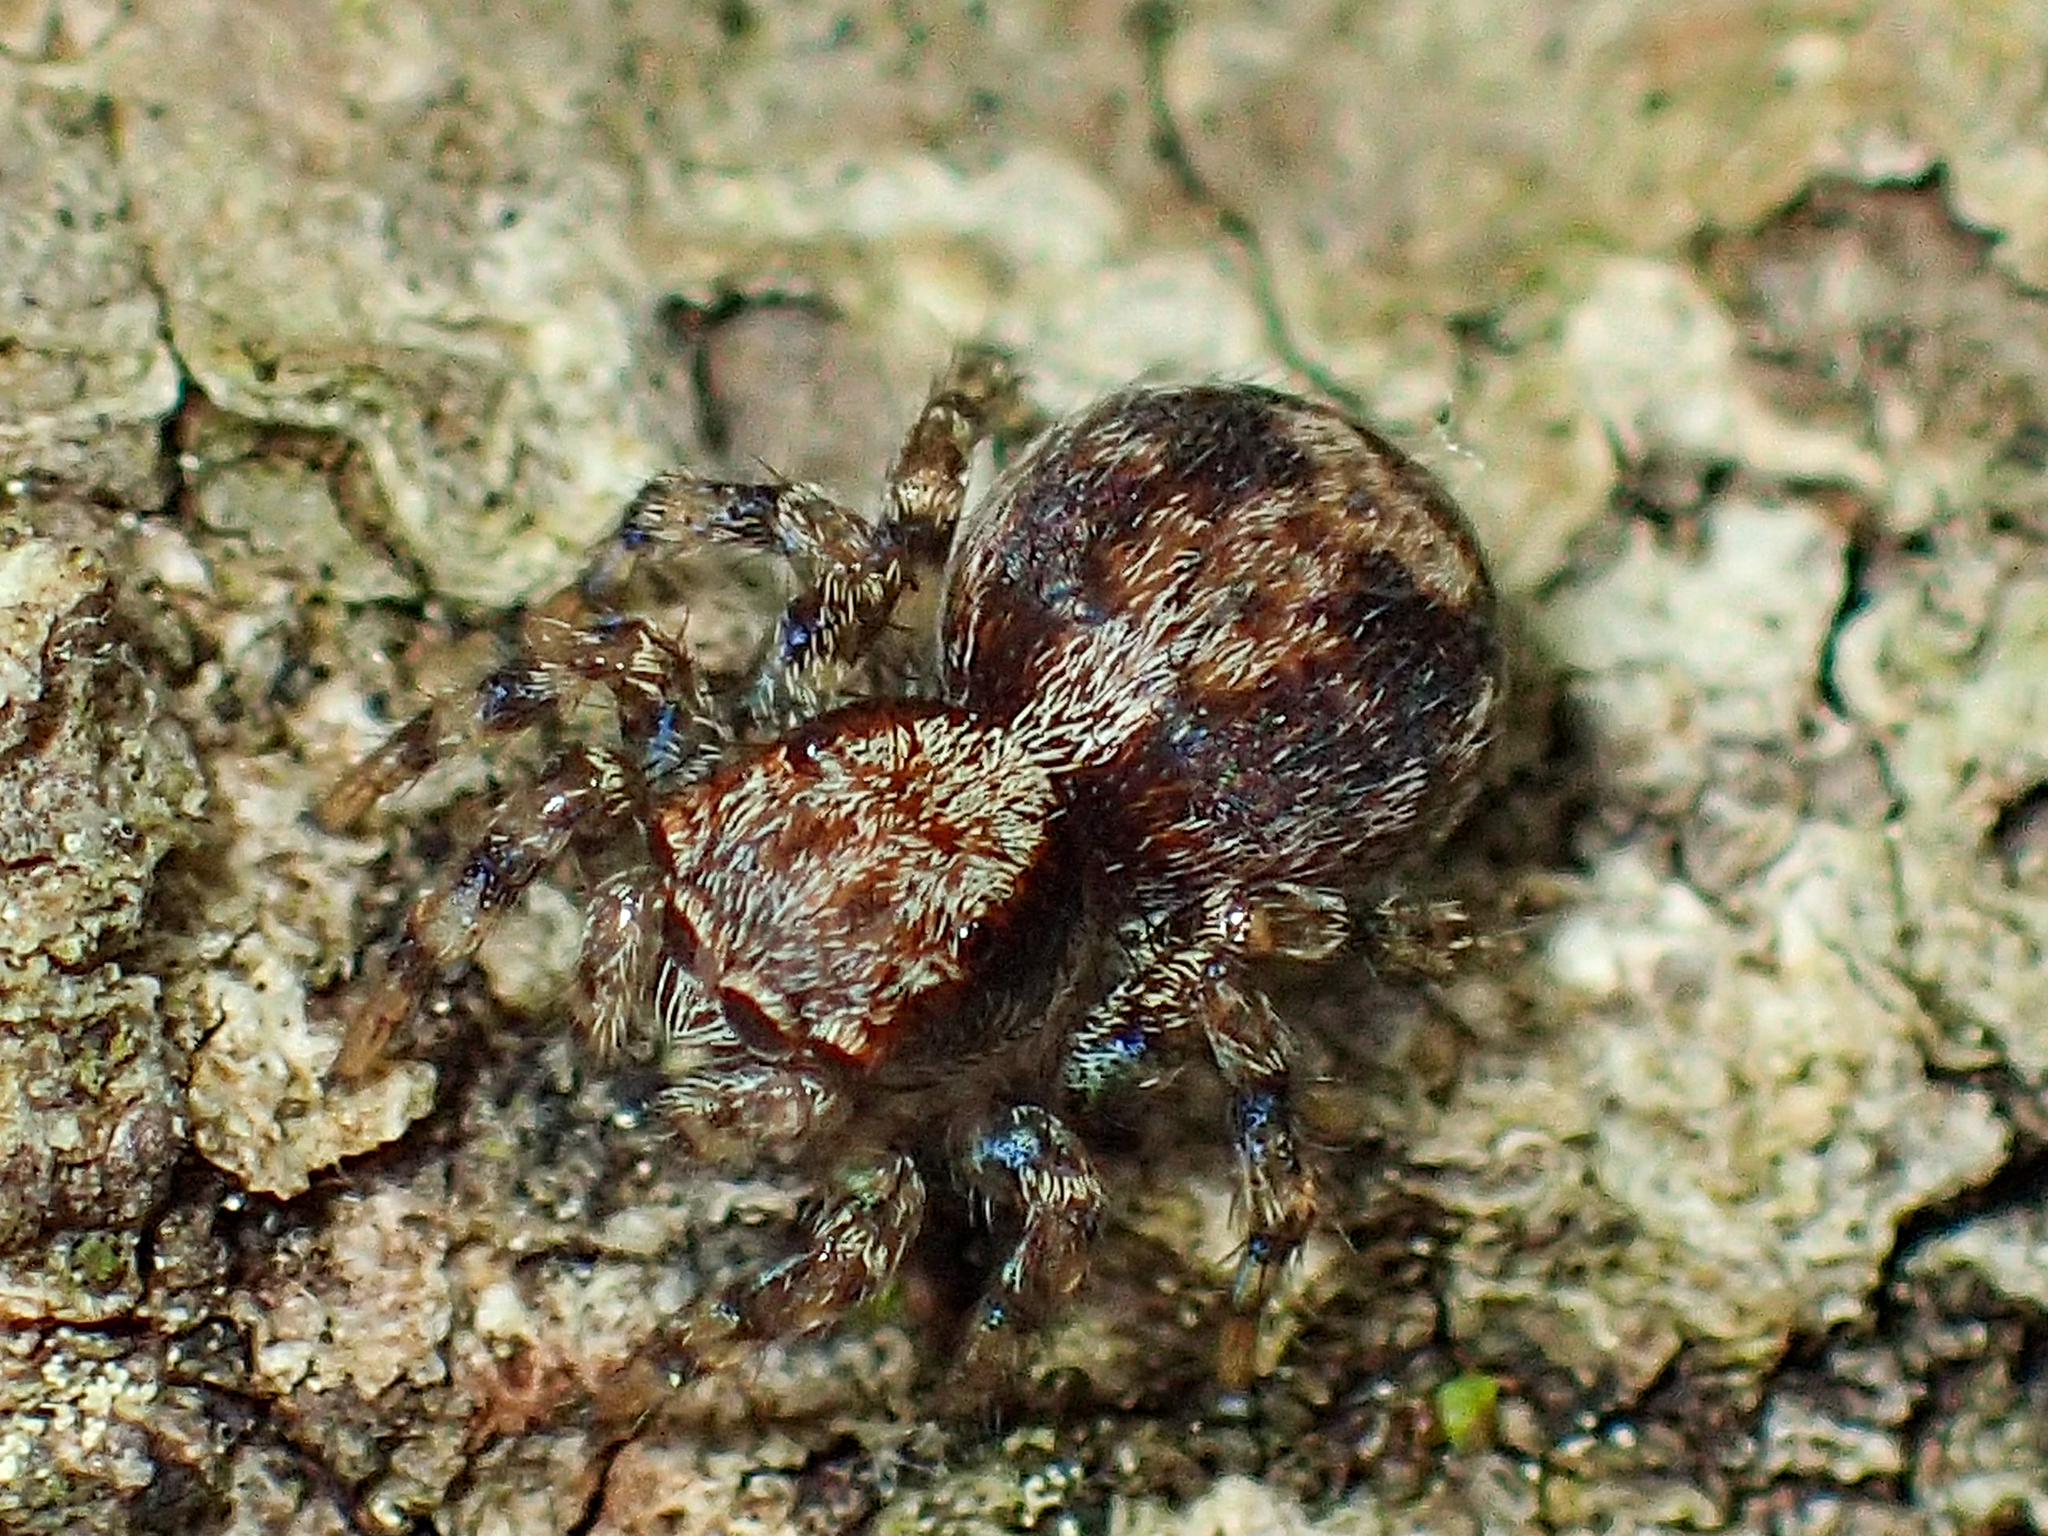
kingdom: Animalia
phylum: Arthropoda
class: Arachnida
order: Araneae
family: Salticidae
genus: Naphrys
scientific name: Naphrys pulex
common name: Flea jumping spider
